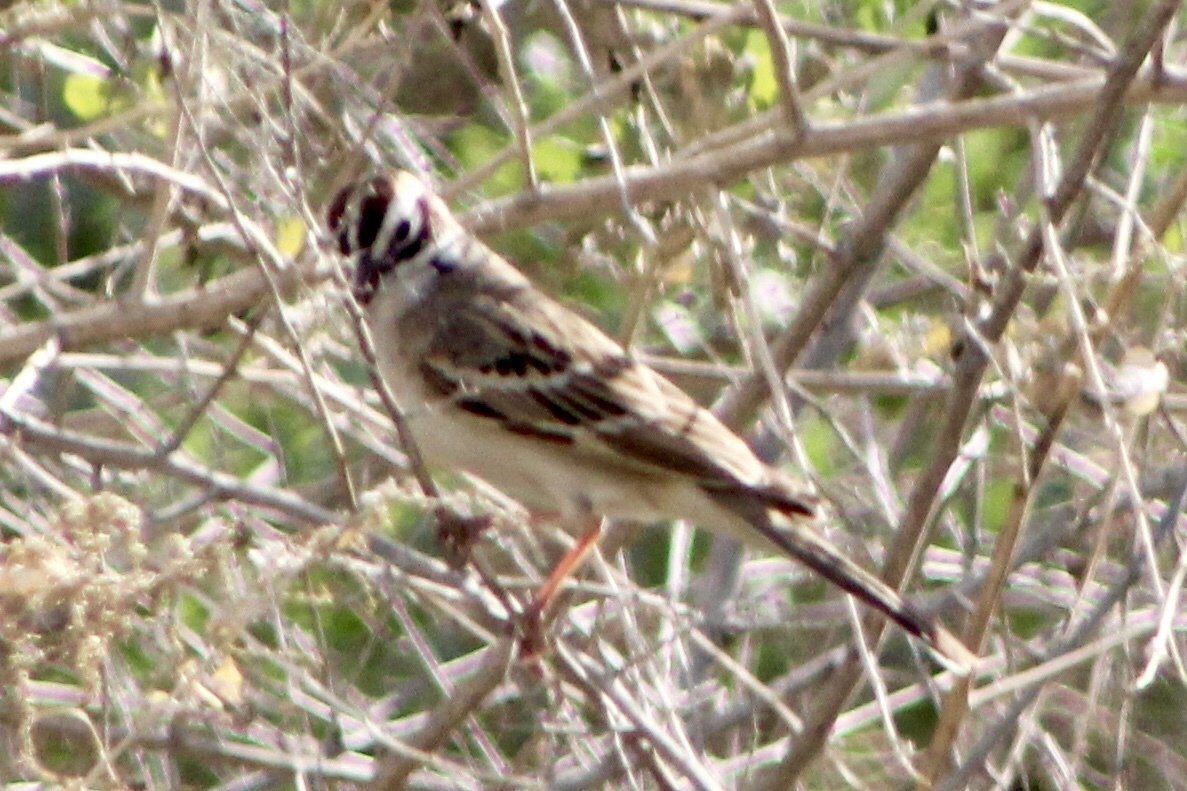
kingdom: Animalia
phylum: Chordata
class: Aves
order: Passeriformes
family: Passerellidae
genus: Chondestes
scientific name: Chondestes grammacus
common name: Lark sparrow
